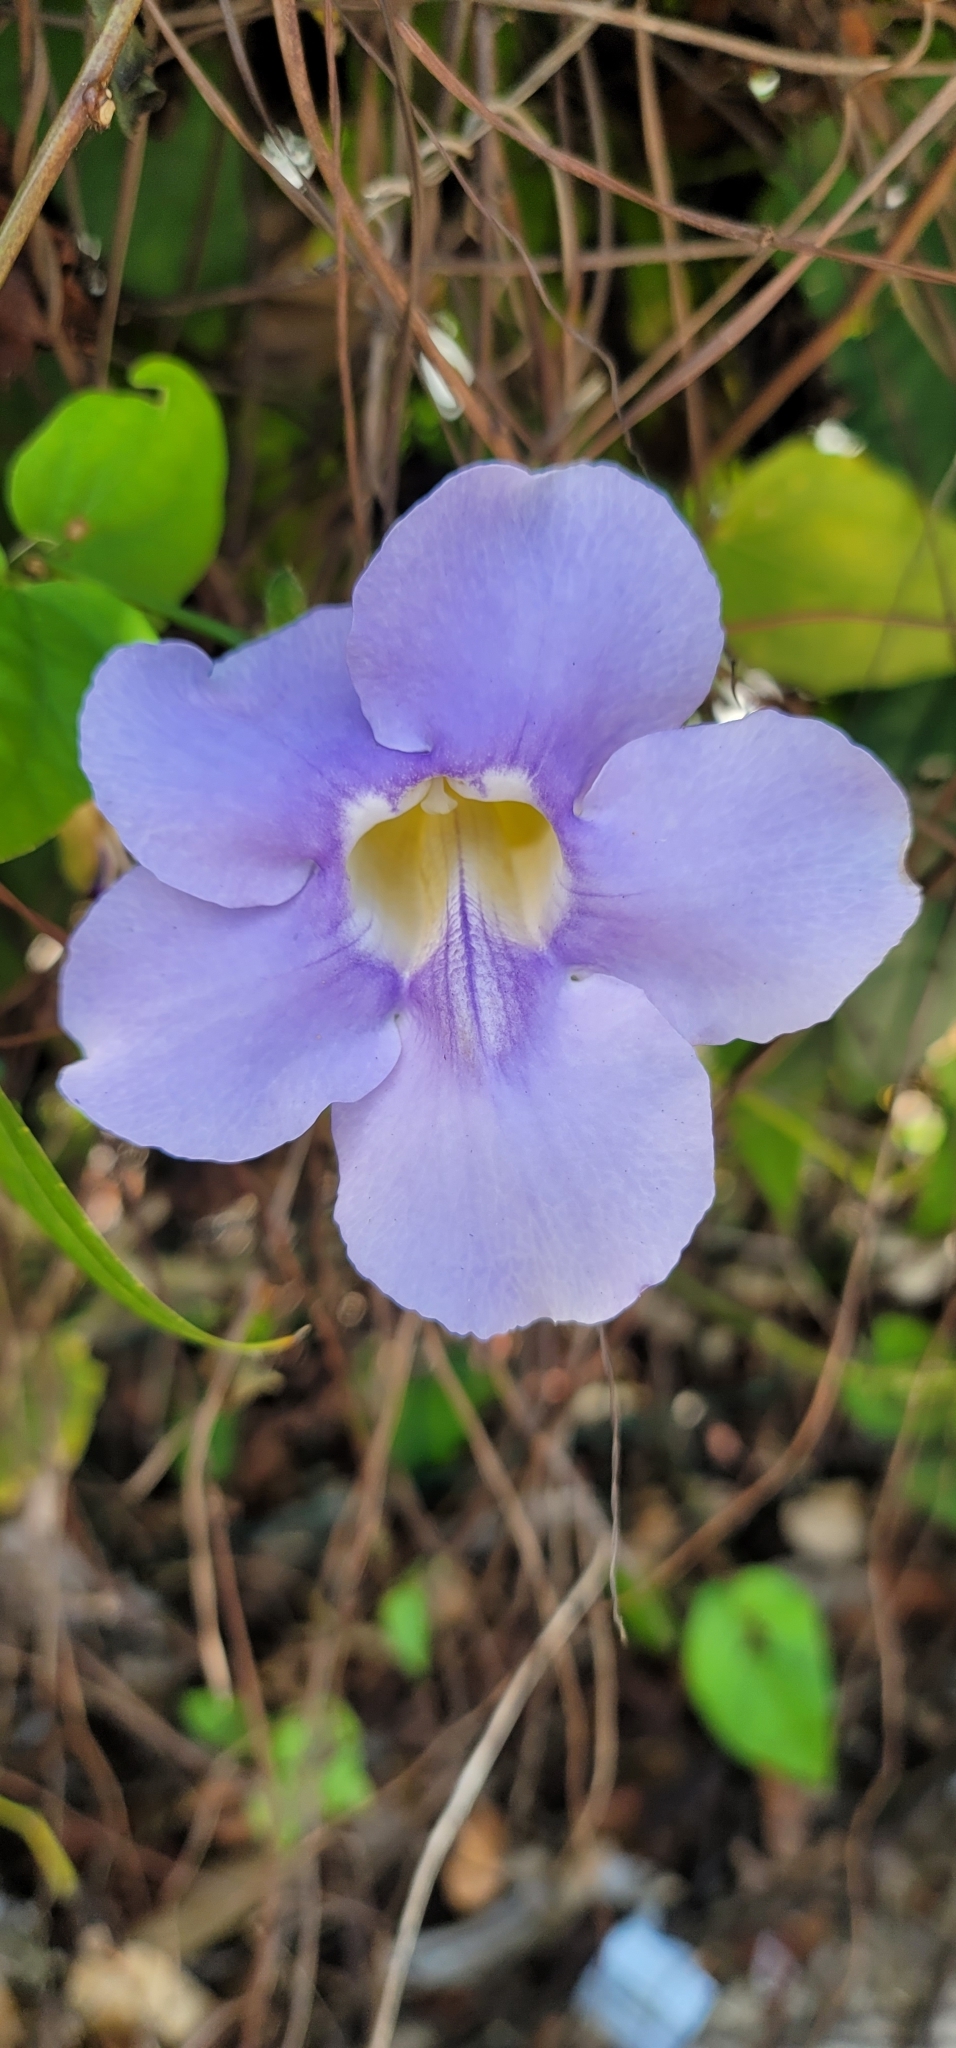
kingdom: Plantae
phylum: Tracheophyta
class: Magnoliopsida
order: Lamiales
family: Acanthaceae
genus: Thunbergia
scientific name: Thunbergia grandiflora
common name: Bengal trumpet
